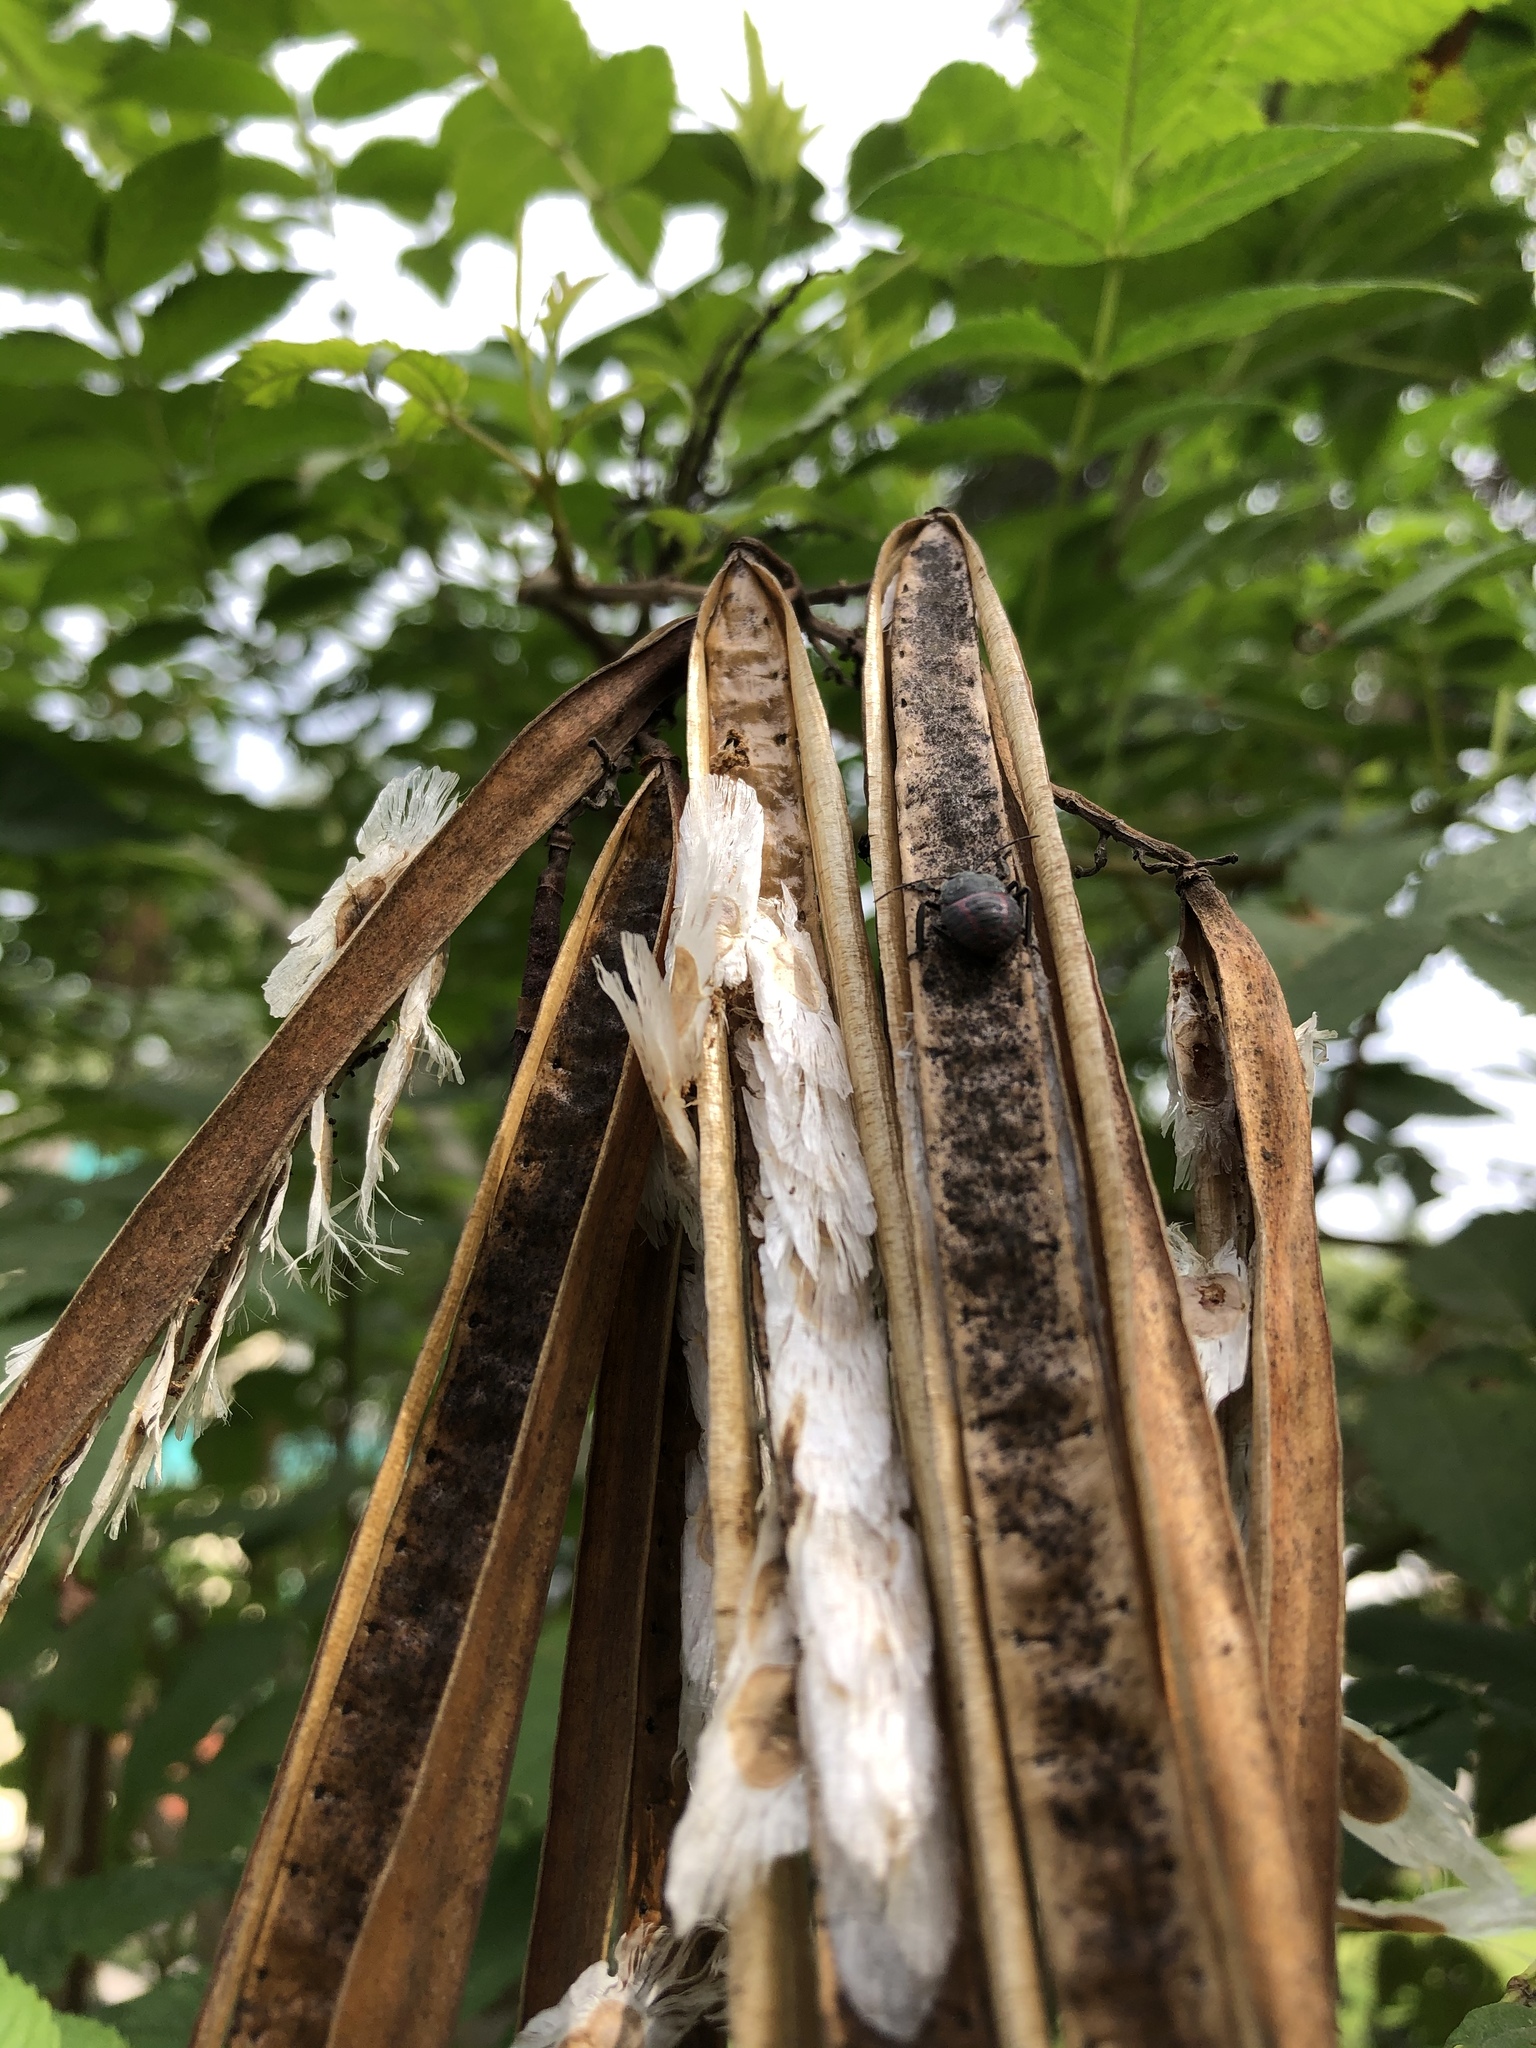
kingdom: Animalia
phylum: Arthropoda
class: Insecta
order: Hemiptera
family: Pentatomidae
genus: Pellaea
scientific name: Pellaea stictica
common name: Stink bug
